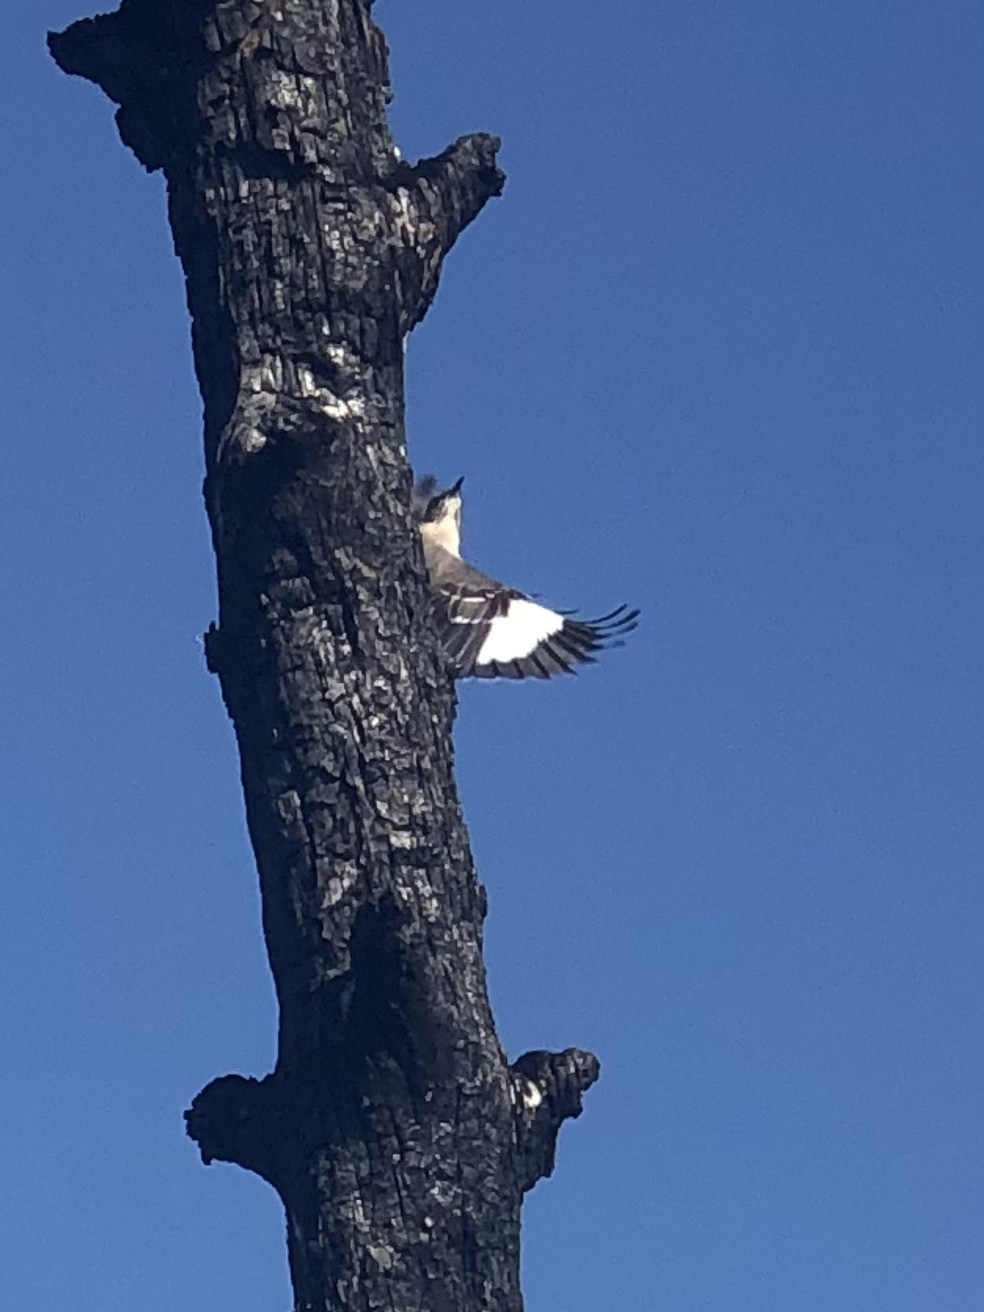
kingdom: Animalia
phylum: Chordata
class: Aves
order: Passeriformes
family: Mimidae
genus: Mimus
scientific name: Mimus polyglottos
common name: Northern mockingbird
